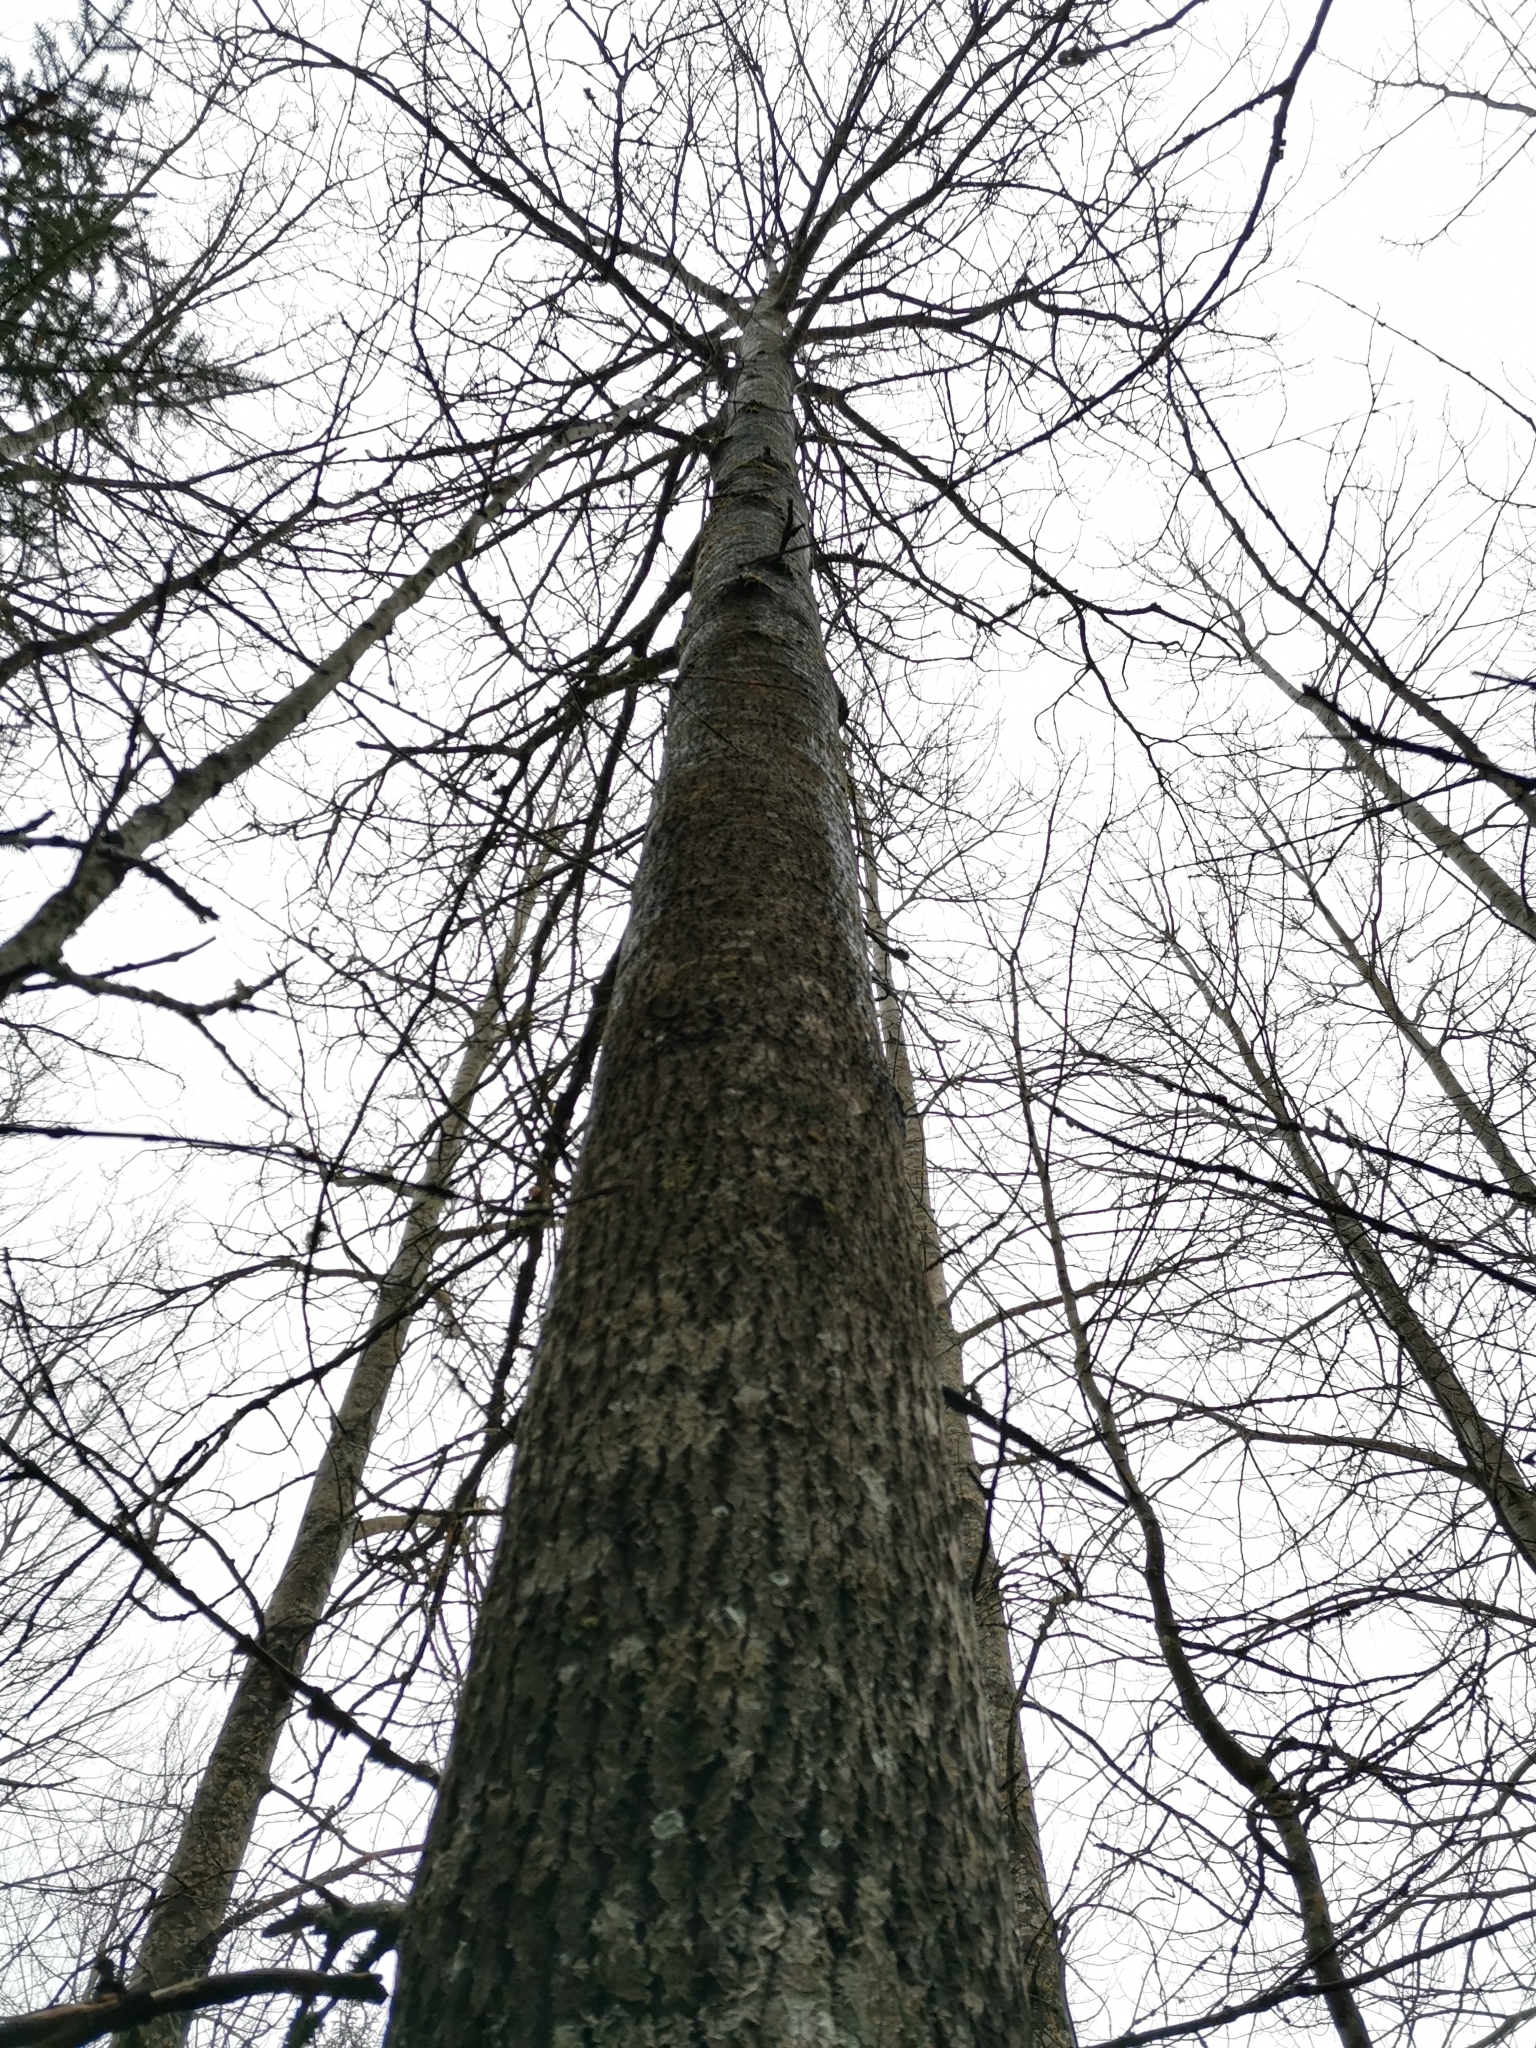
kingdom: Animalia
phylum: Chordata
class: Mammalia
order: Rodentia
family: Sciuridae
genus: Pteromys
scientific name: Pteromys volans
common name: Siberian flying squirrel
